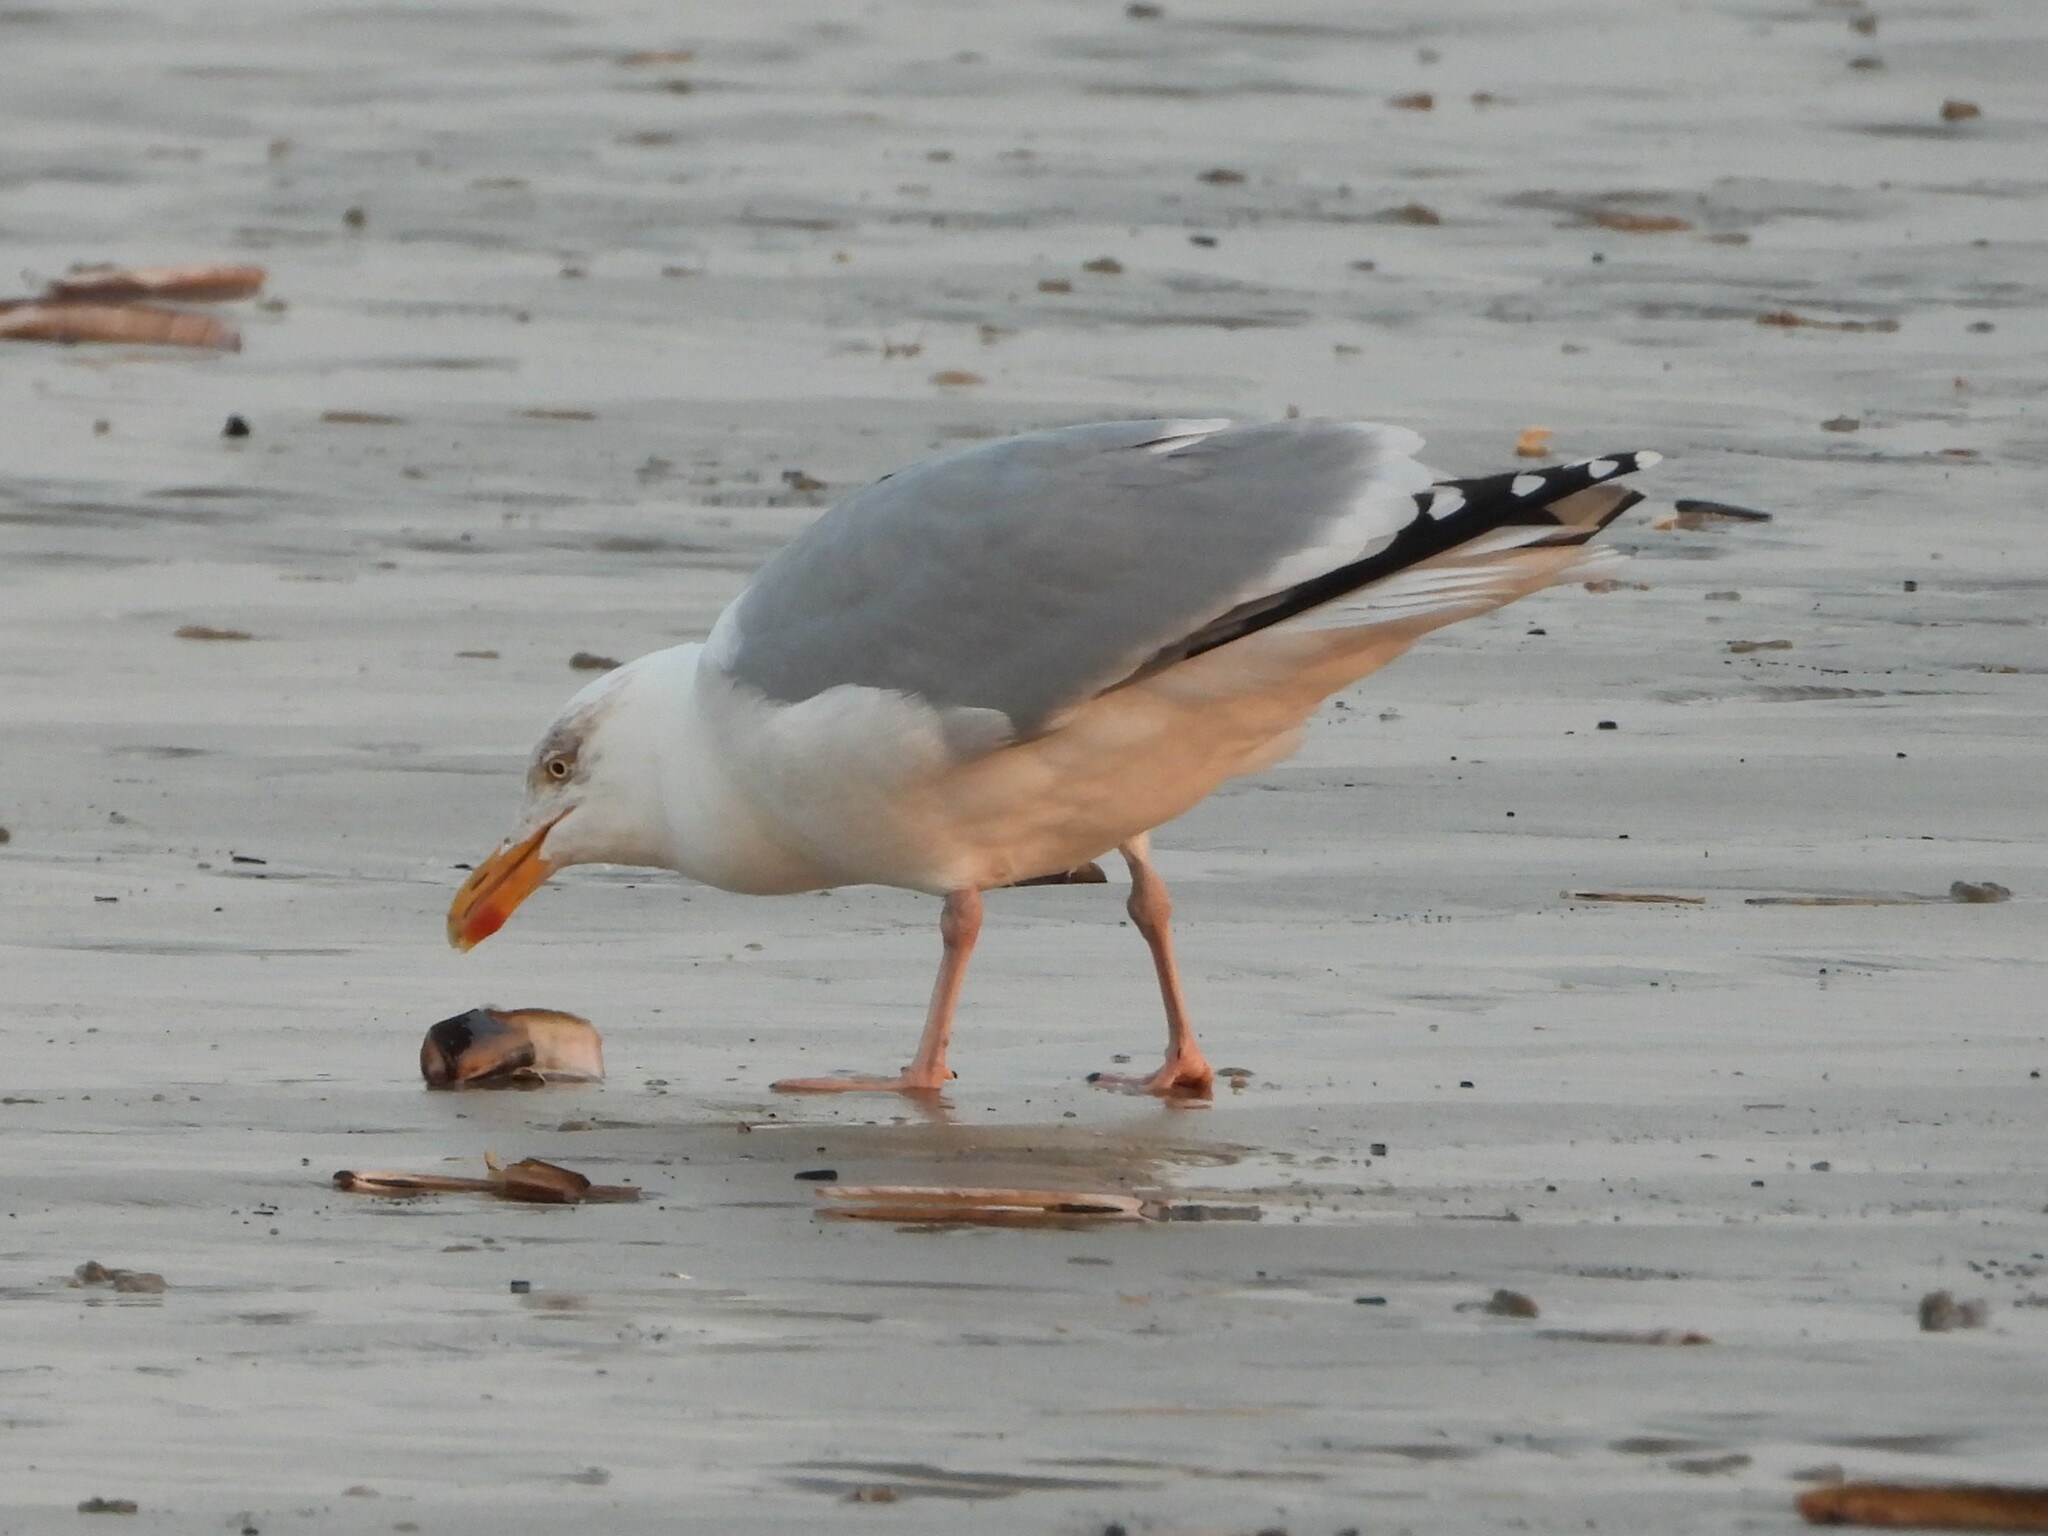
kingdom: Animalia
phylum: Chordata
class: Aves
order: Charadriiformes
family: Laridae
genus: Larus
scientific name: Larus argentatus
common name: Herring gull
